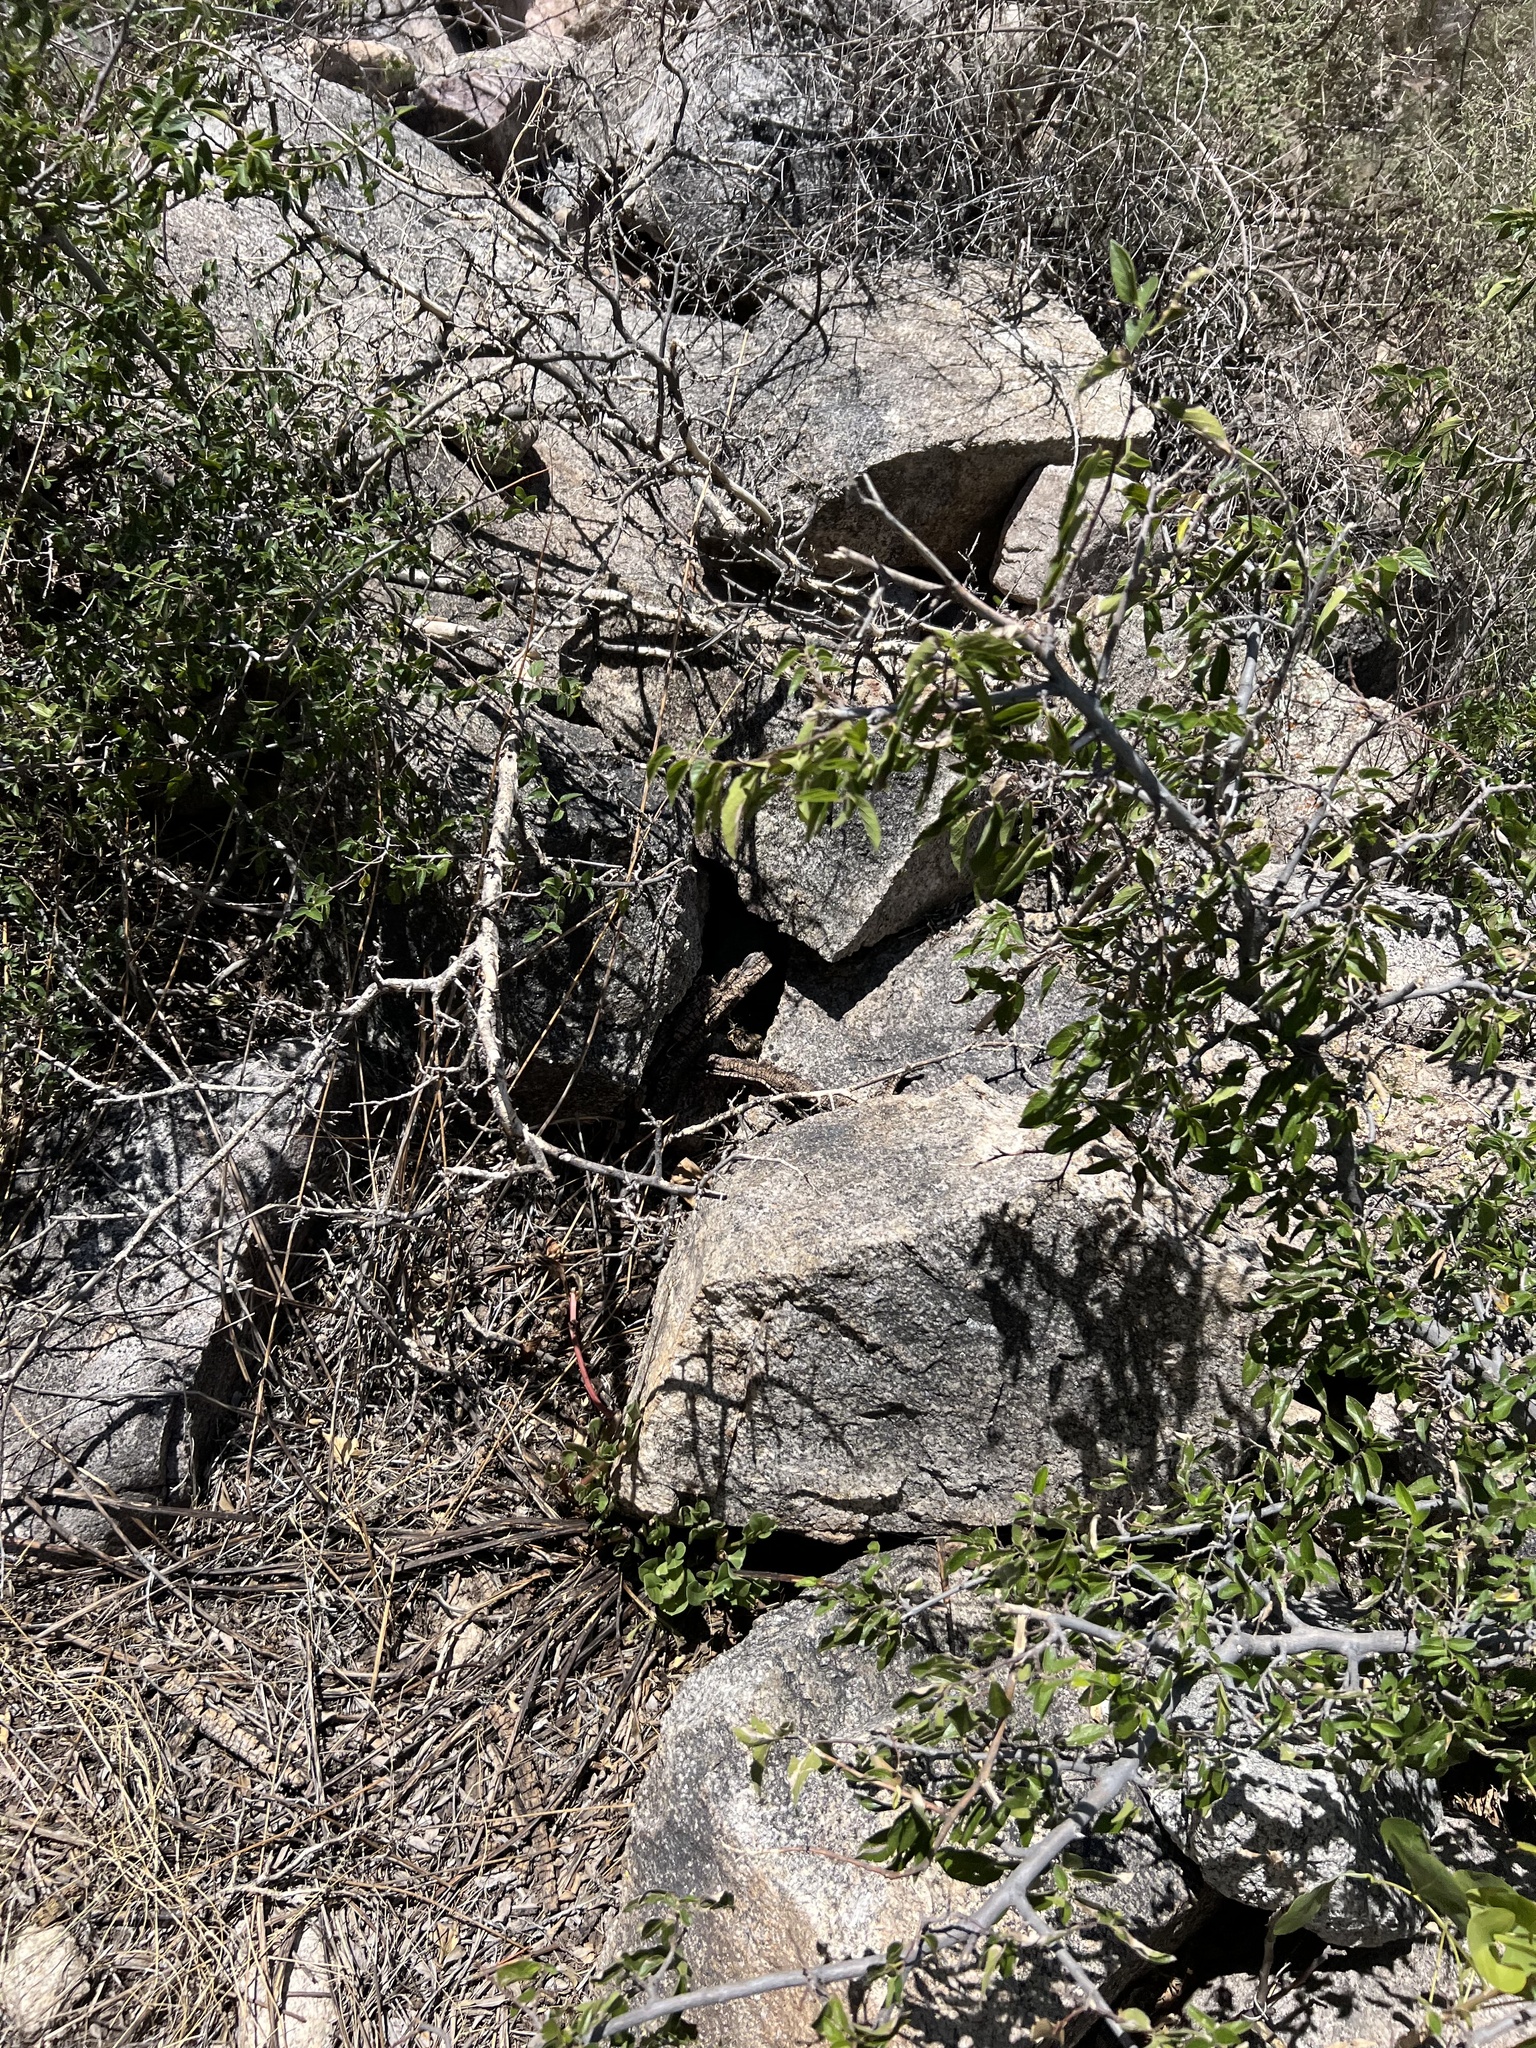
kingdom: Plantae
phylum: Tracheophyta
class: Magnoliopsida
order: Rosales
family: Cannabaceae
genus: Celtis
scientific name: Celtis reticulata
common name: Netleaf hackberry
